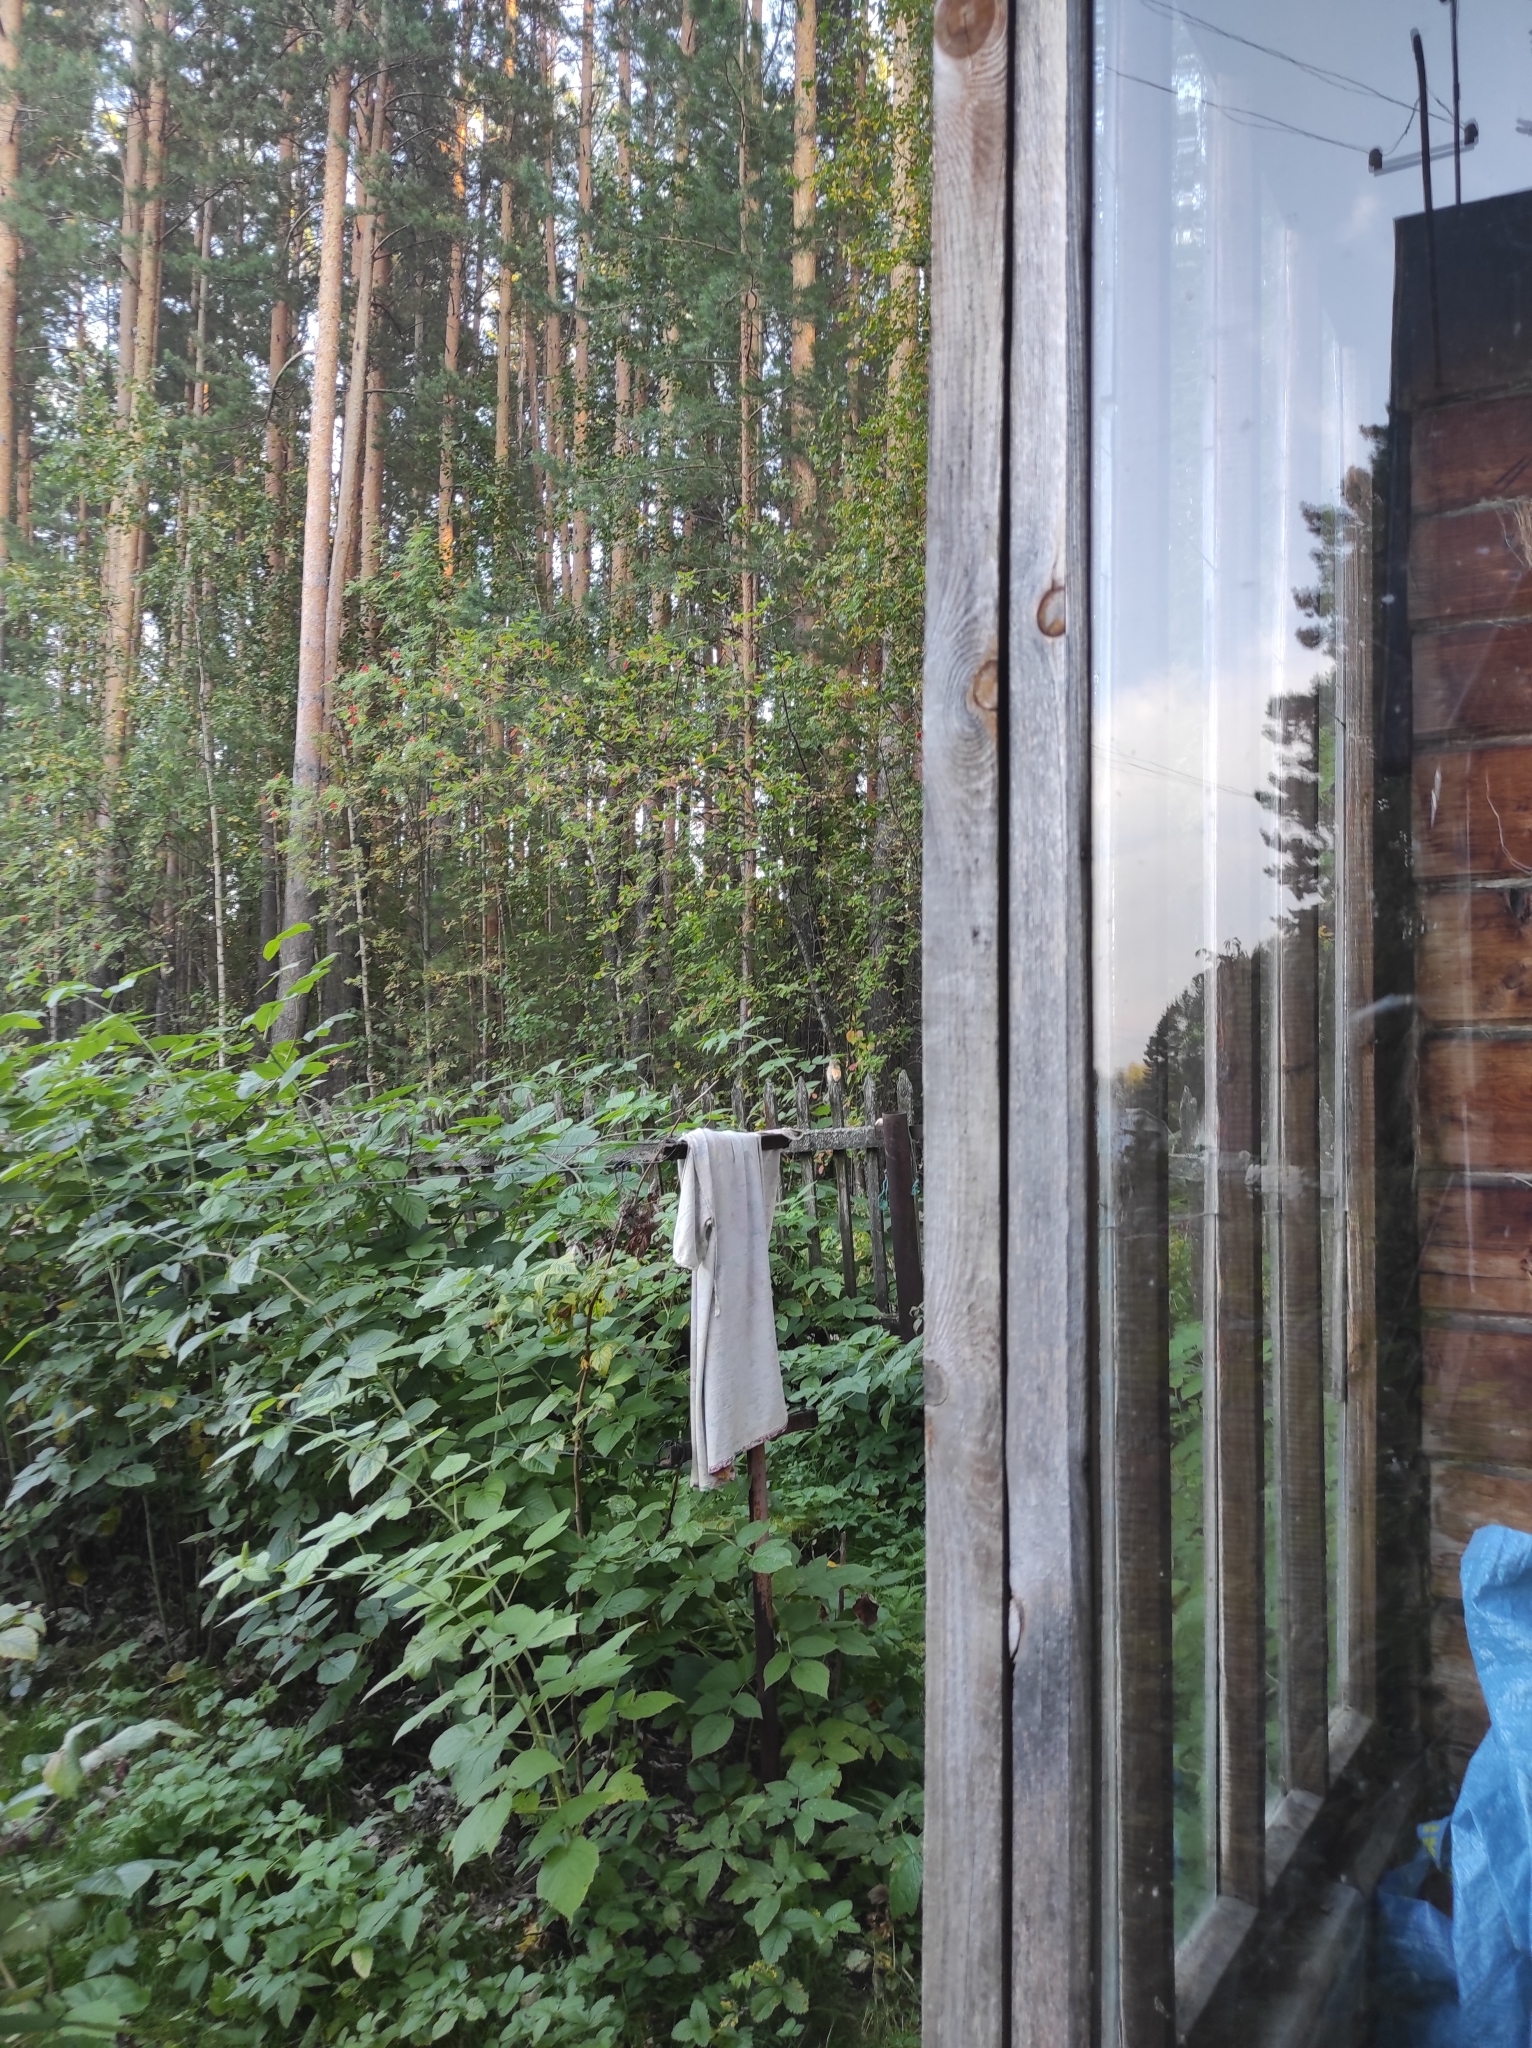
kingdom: Animalia
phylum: Chordata
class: Mammalia
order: Rodentia
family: Sciuridae
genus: Tamias
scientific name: Tamias sibiricus
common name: Siberian chipmunk
